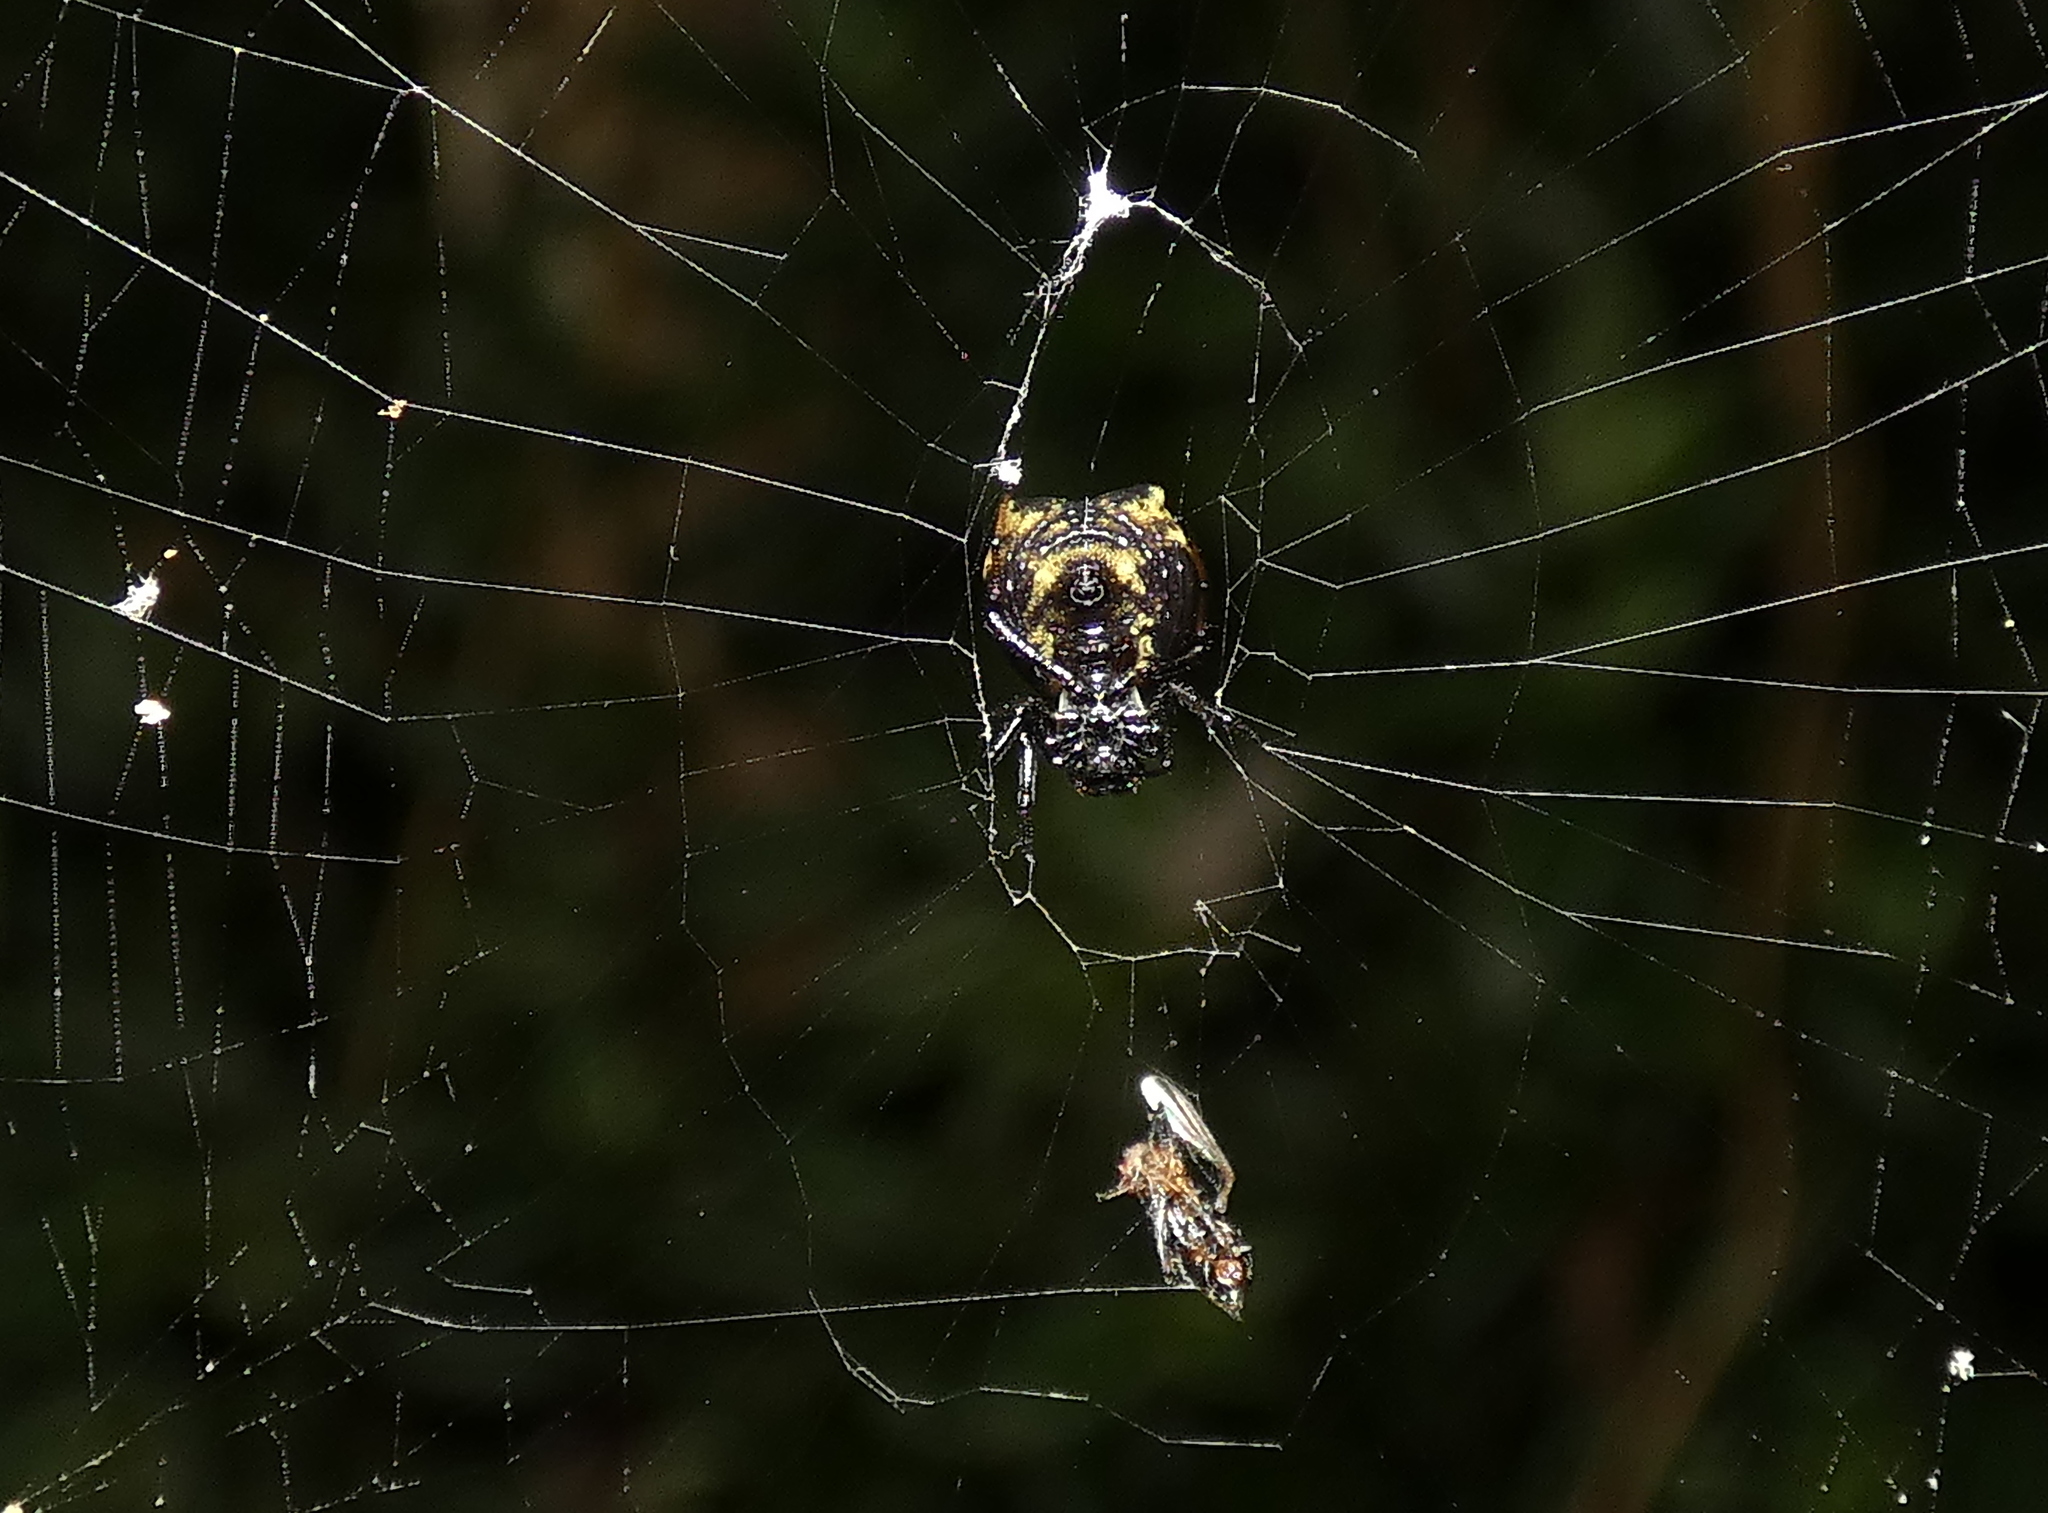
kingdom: Animalia
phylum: Arthropoda
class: Arachnida
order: Araneae
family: Araneidae
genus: Micrathena
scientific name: Micrathena patruelis
